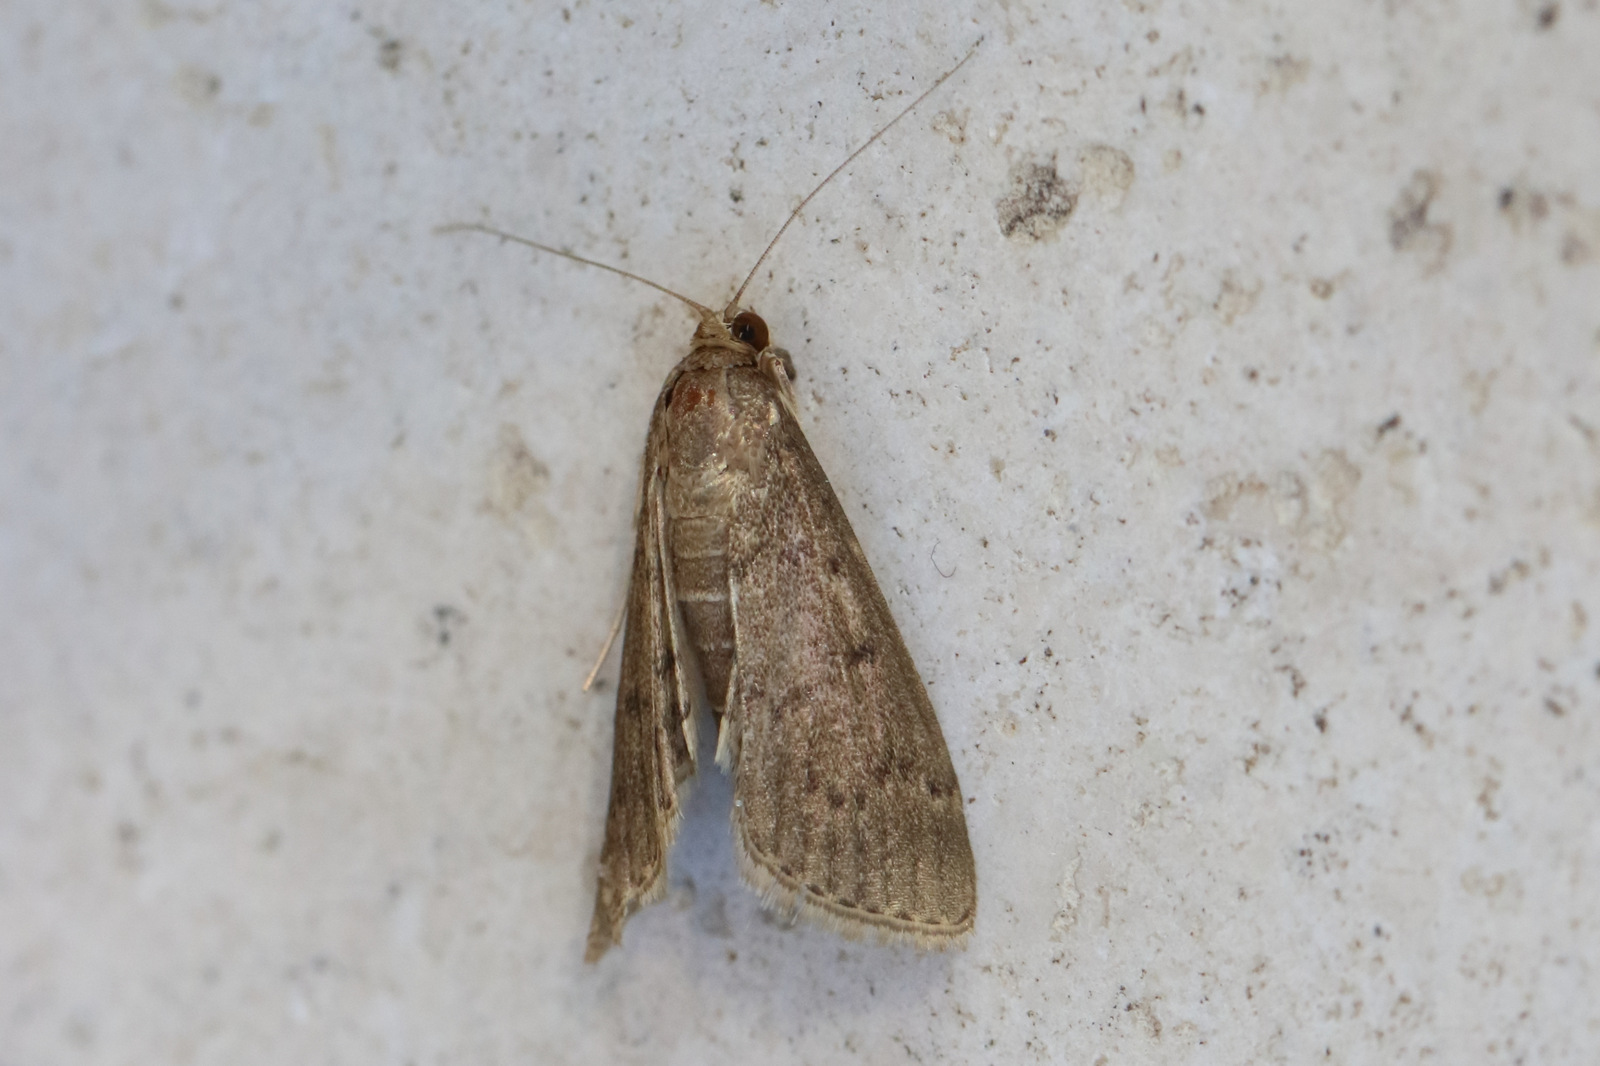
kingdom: Animalia
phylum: Arthropoda
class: Insecta
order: Lepidoptera
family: Crambidae
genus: Herpetogramma
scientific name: Herpetogramma licarsisalis
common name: Grass webworm
